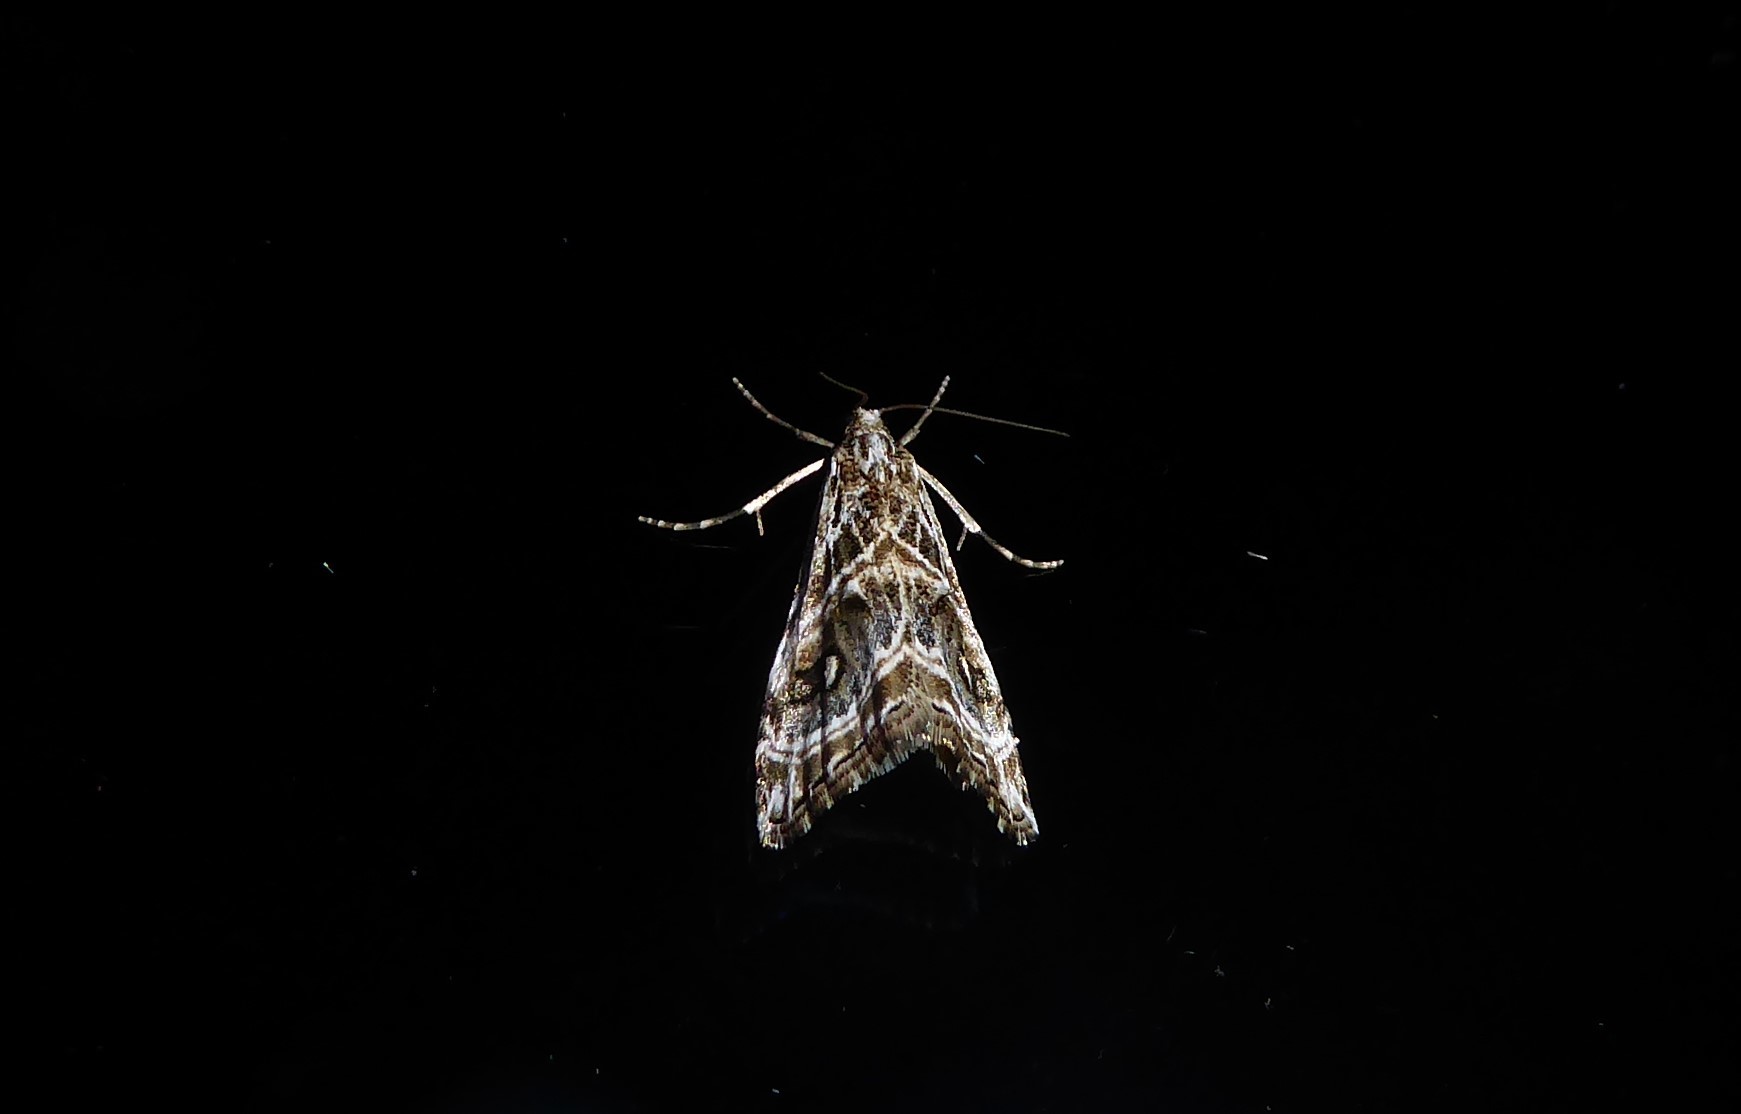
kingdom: Animalia
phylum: Arthropoda
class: Insecta
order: Lepidoptera
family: Crambidae
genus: Gadira
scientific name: Gadira acerella
